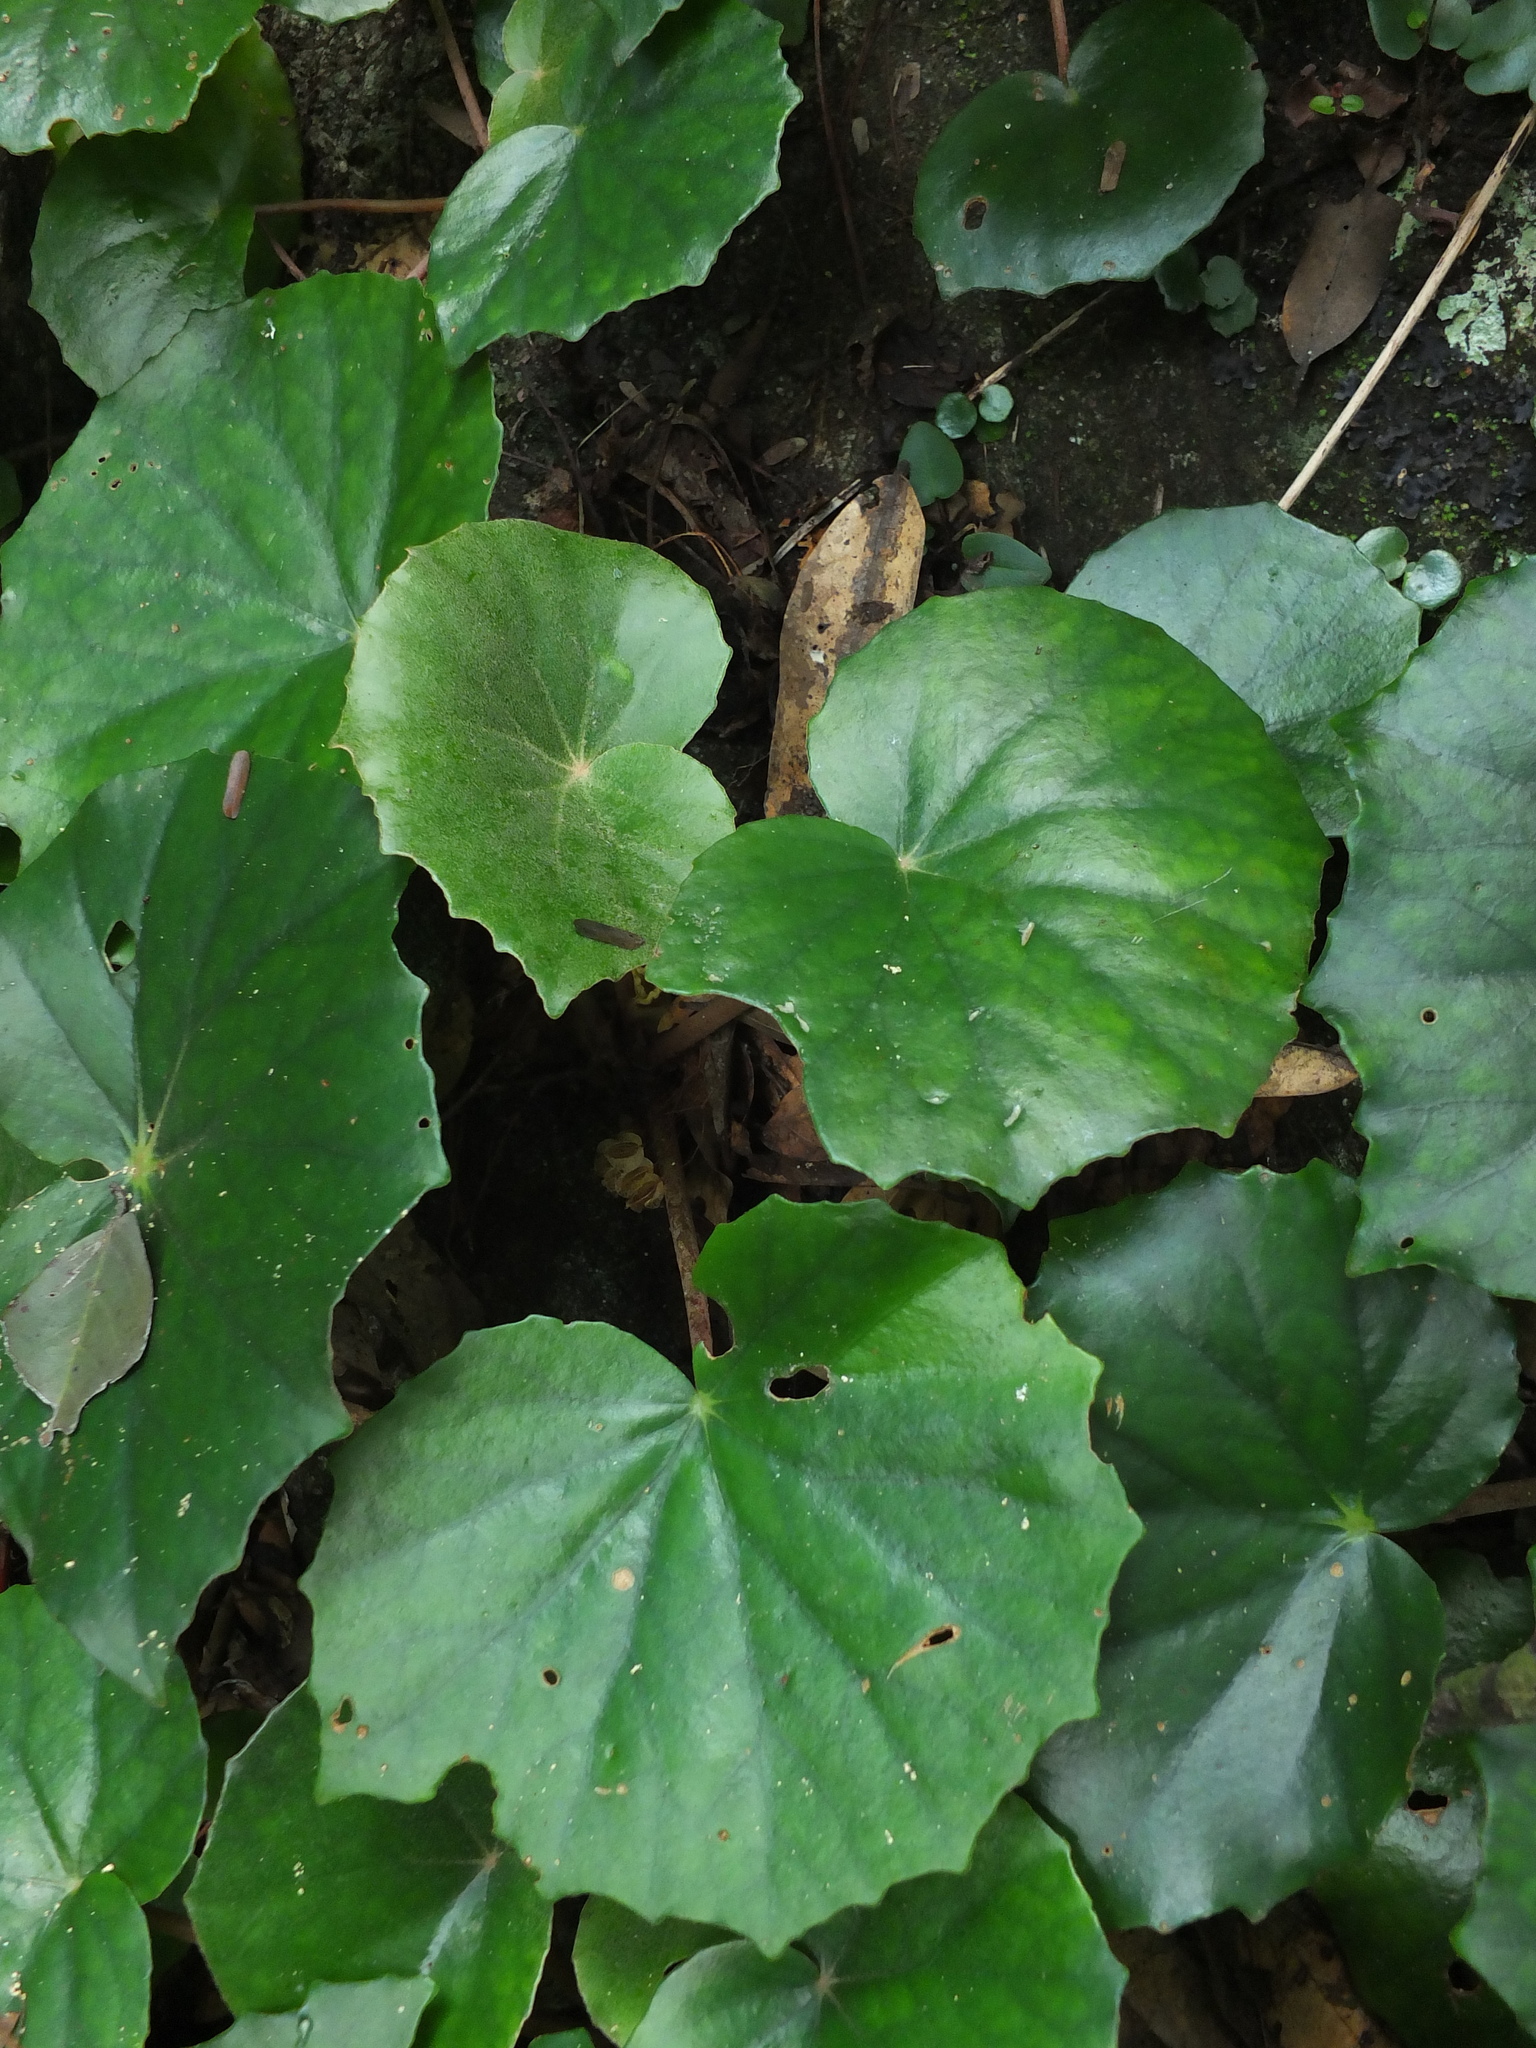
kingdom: Plantae
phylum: Tracheophyta
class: Magnoliopsida
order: Cucurbitales
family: Begoniaceae
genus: Begonia
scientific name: Begonia floccifera
